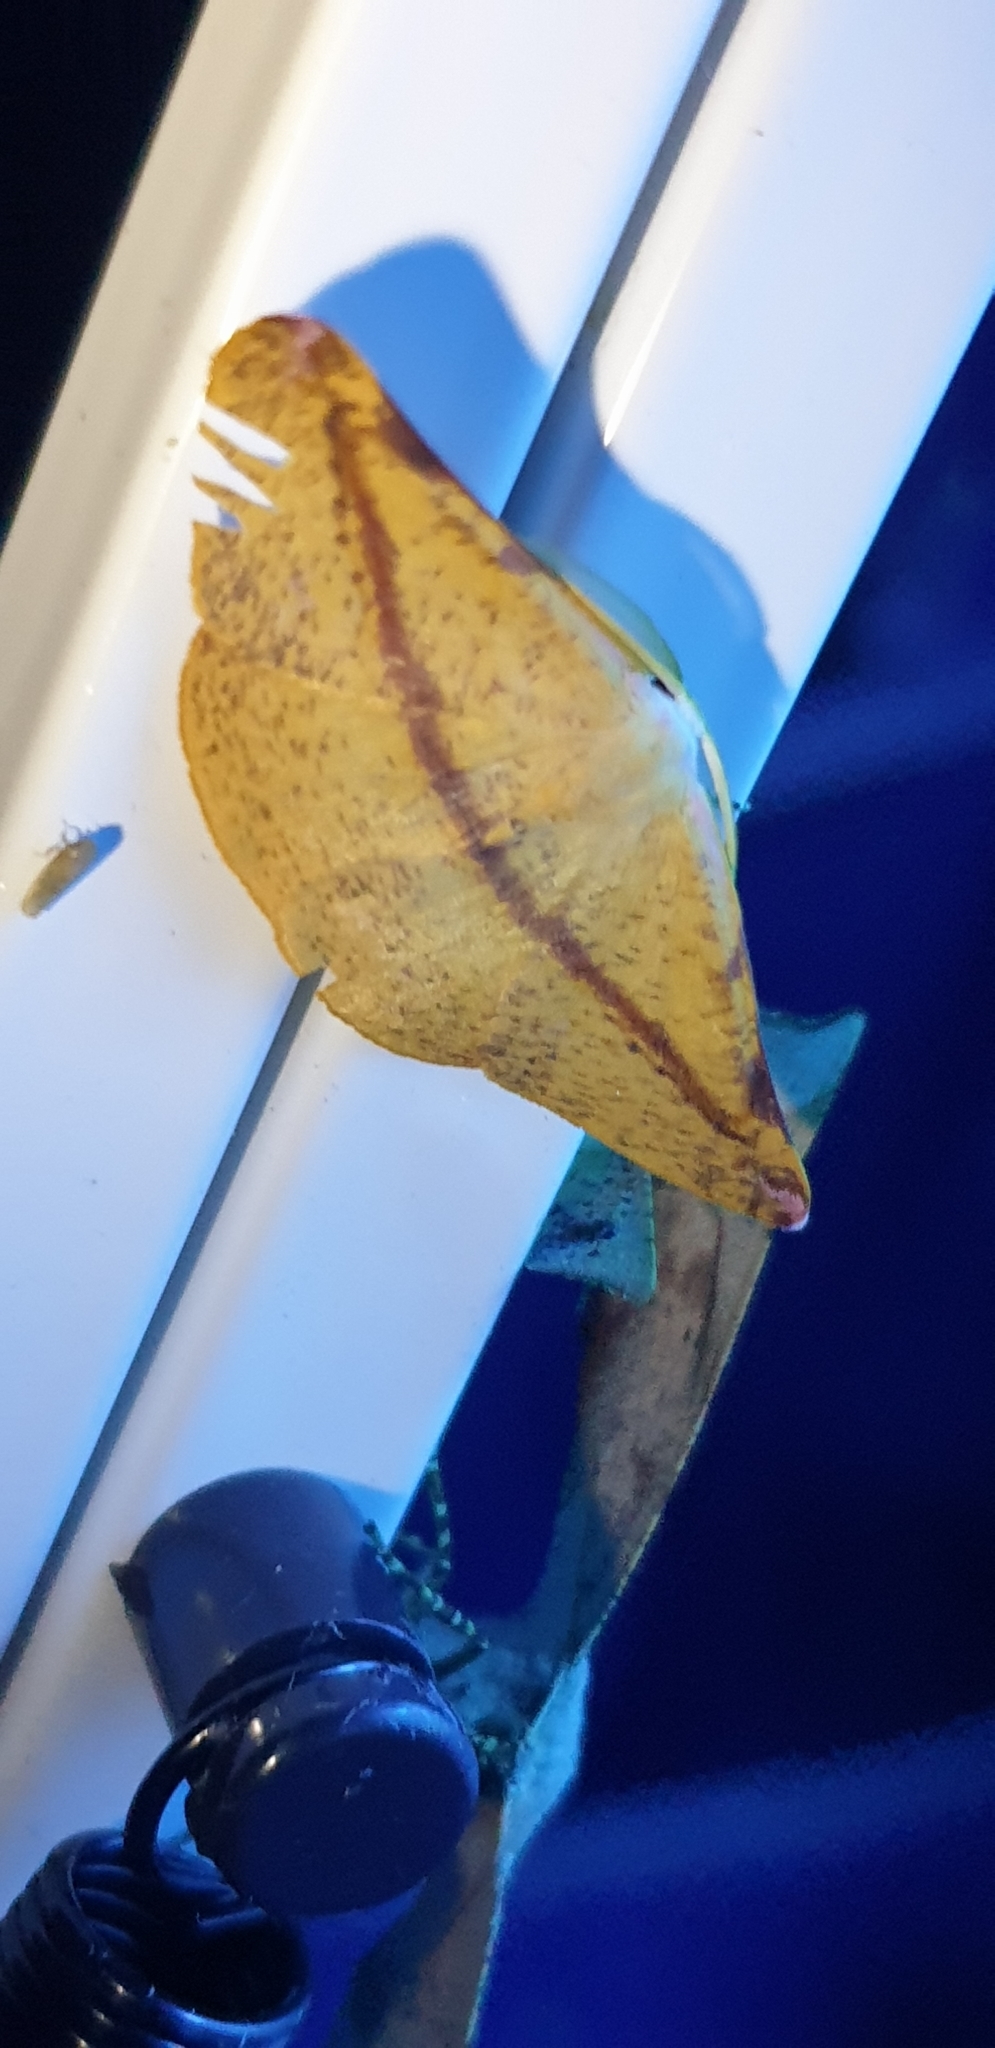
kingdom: Animalia
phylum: Arthropoda
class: Insecta
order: Lepidoptera
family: Geometridae
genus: Onycodes
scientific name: Onycodes rubra
